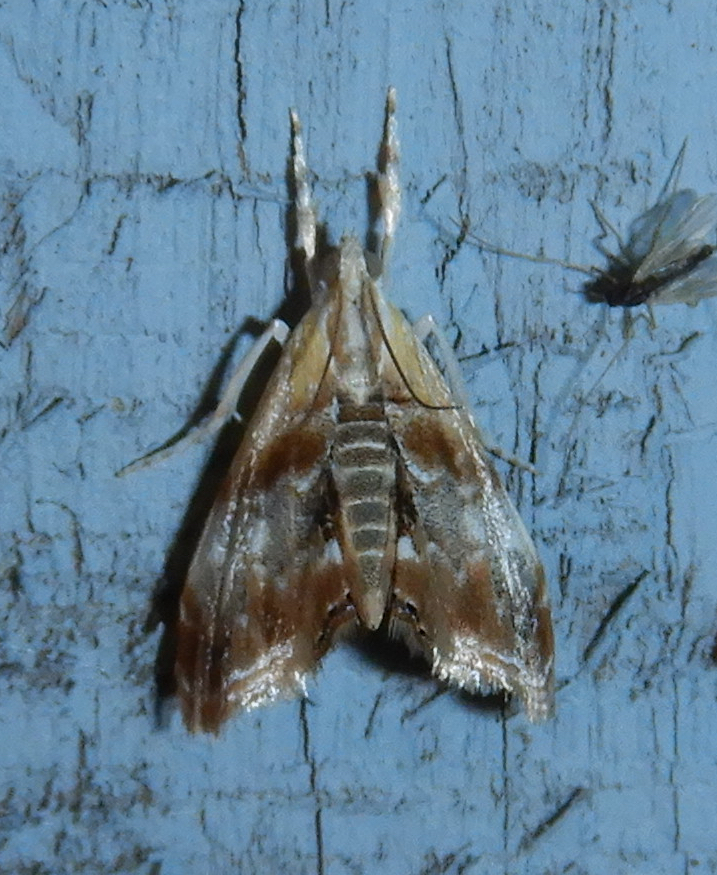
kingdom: Animalia
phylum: Arthropoda
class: Insecta
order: Lepidoptera
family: Crambidae
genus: Dicymolomia
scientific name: Dicymolomia julianalis
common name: Julia's dicymolomia moth
